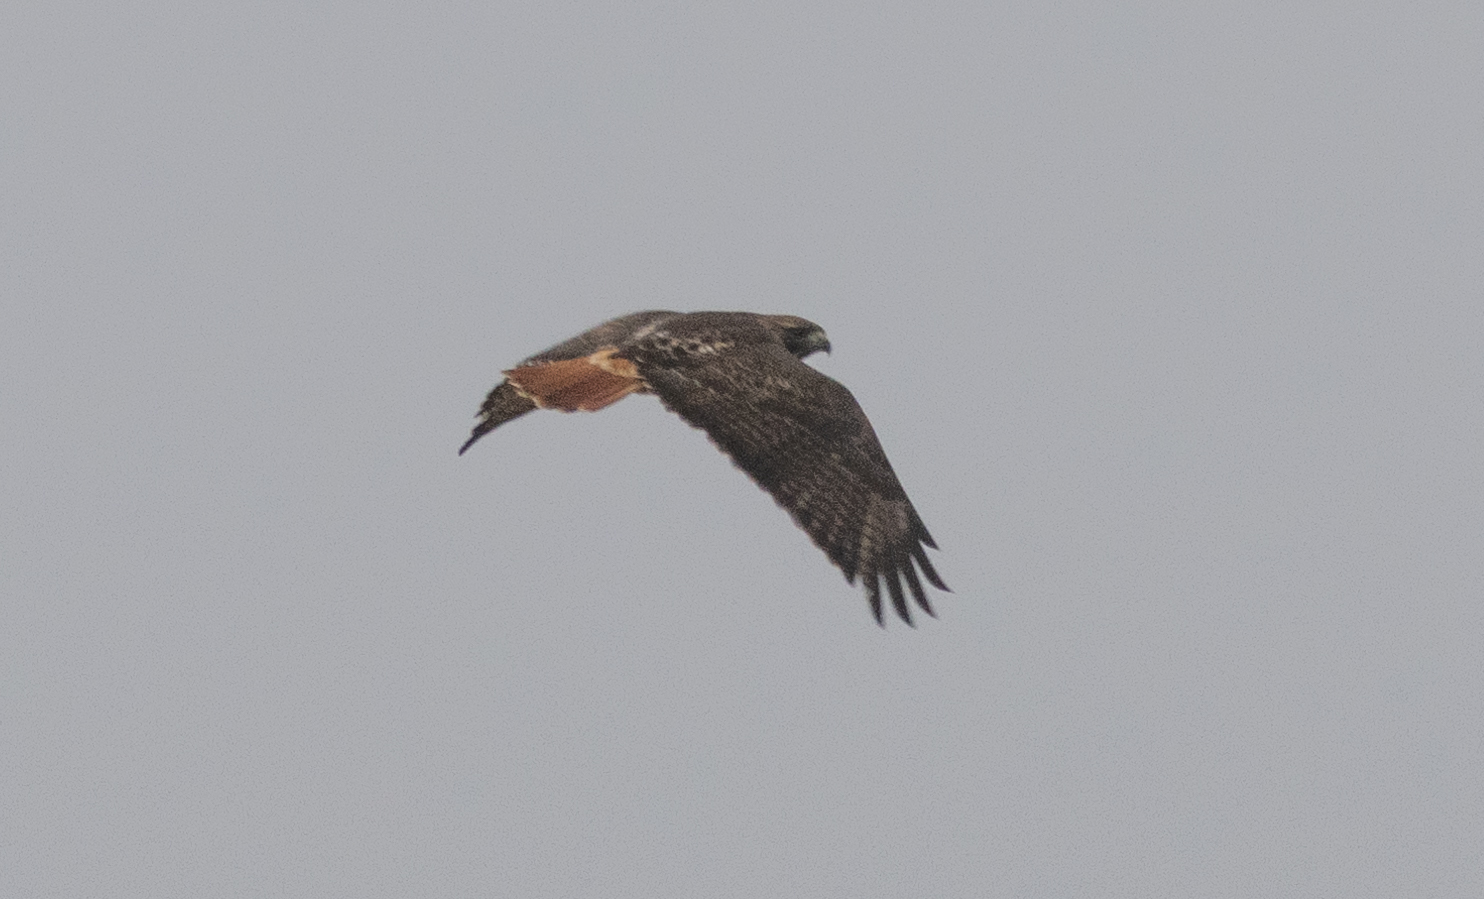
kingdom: Animalia
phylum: Chordata
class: Aves
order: Accipitriformes
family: Accipitridae
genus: Buteo
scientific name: Buteo jamaicensis
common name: Red-tailed hawk
